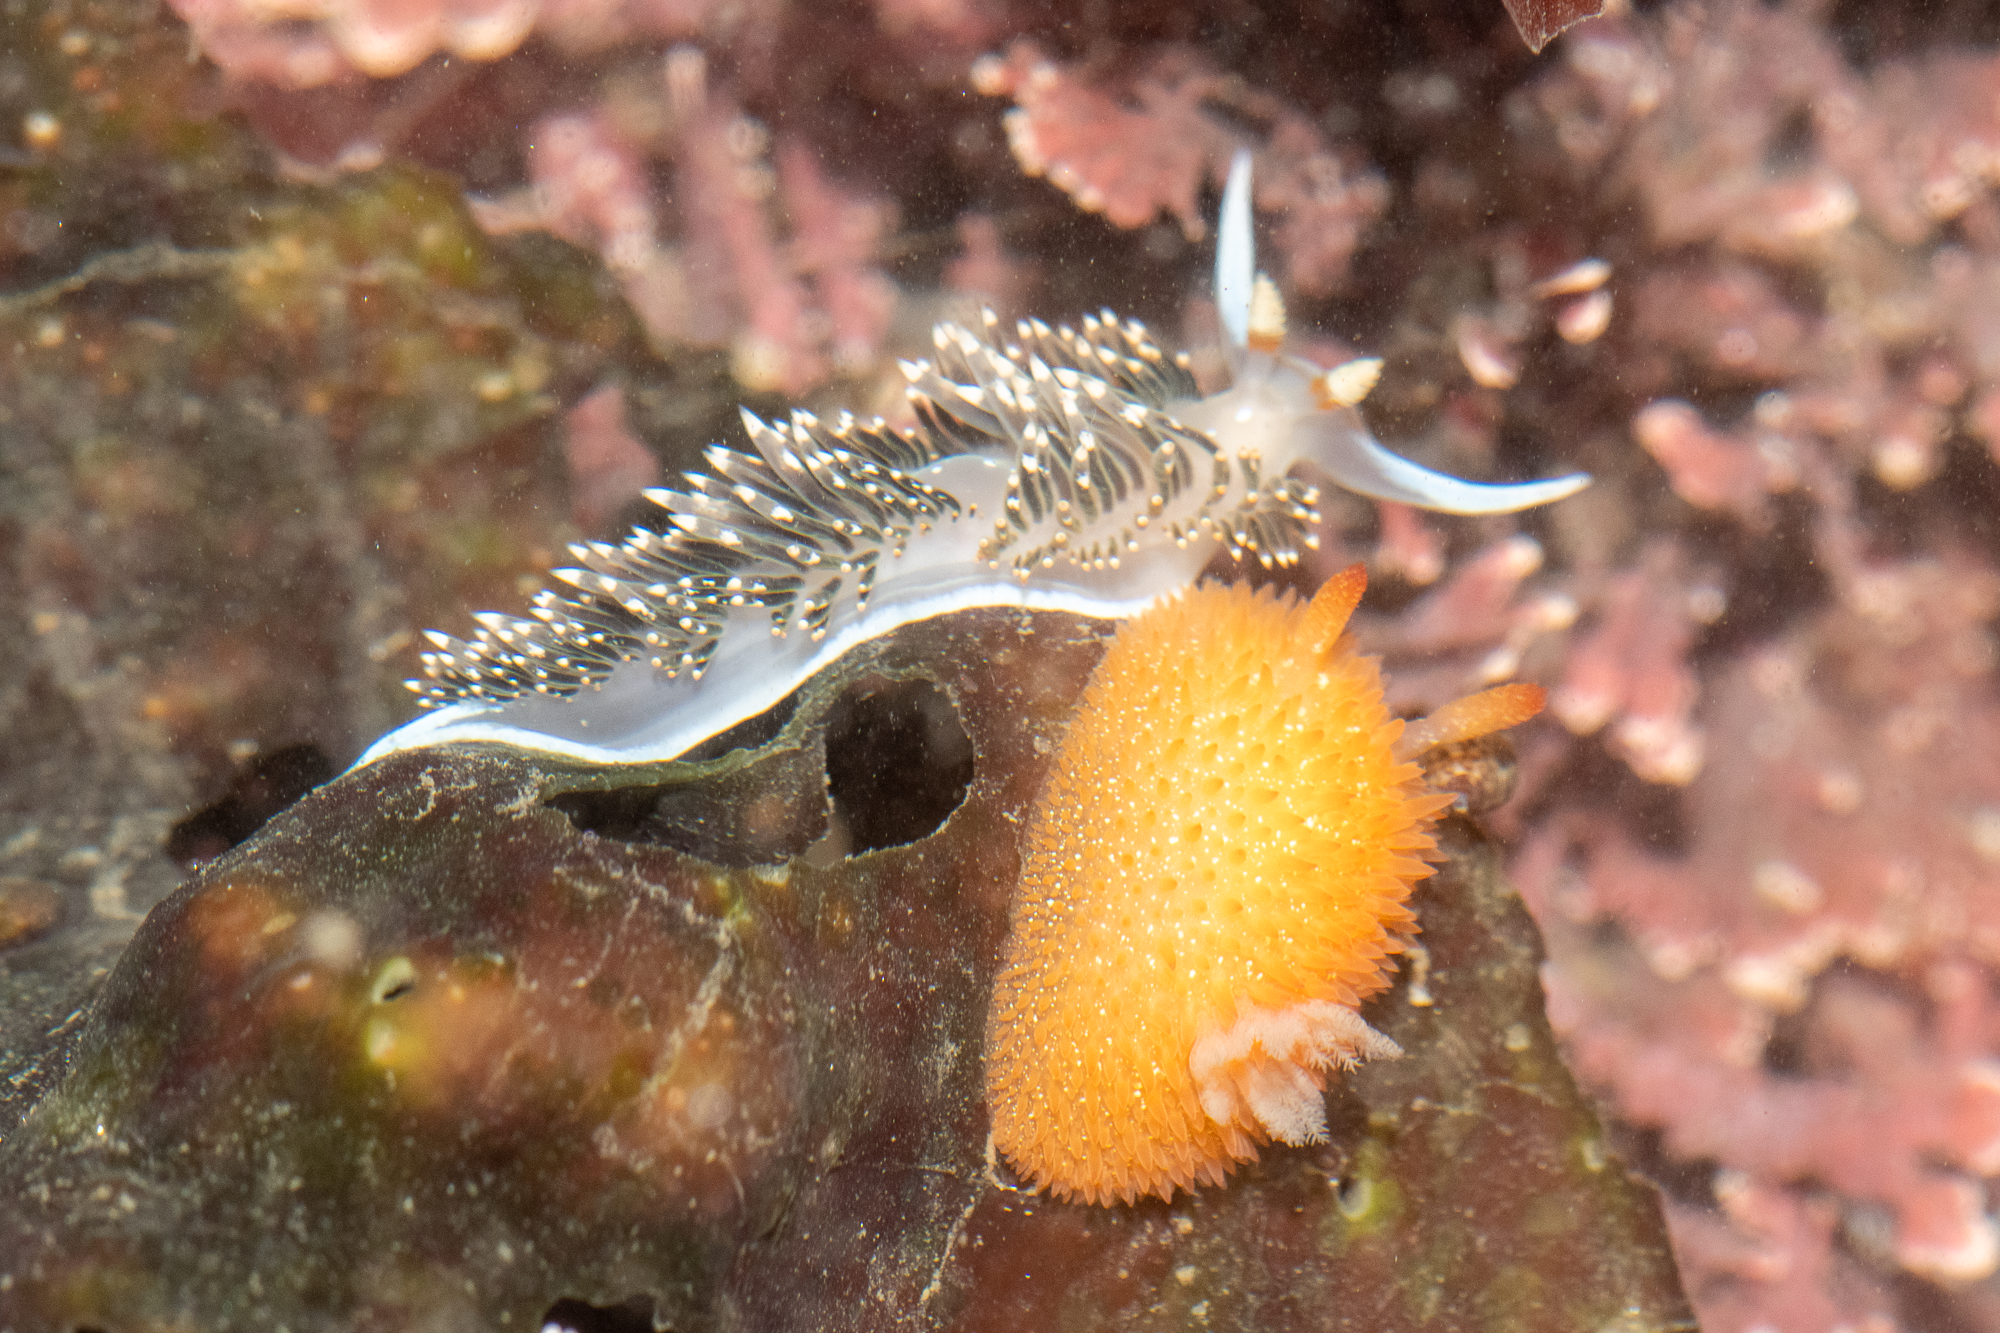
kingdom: Animalia
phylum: Mollusca
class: Gastropoda
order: Nudibranchia
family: Facelinidae
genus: Phidiana
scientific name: Phidiana hiltoni
